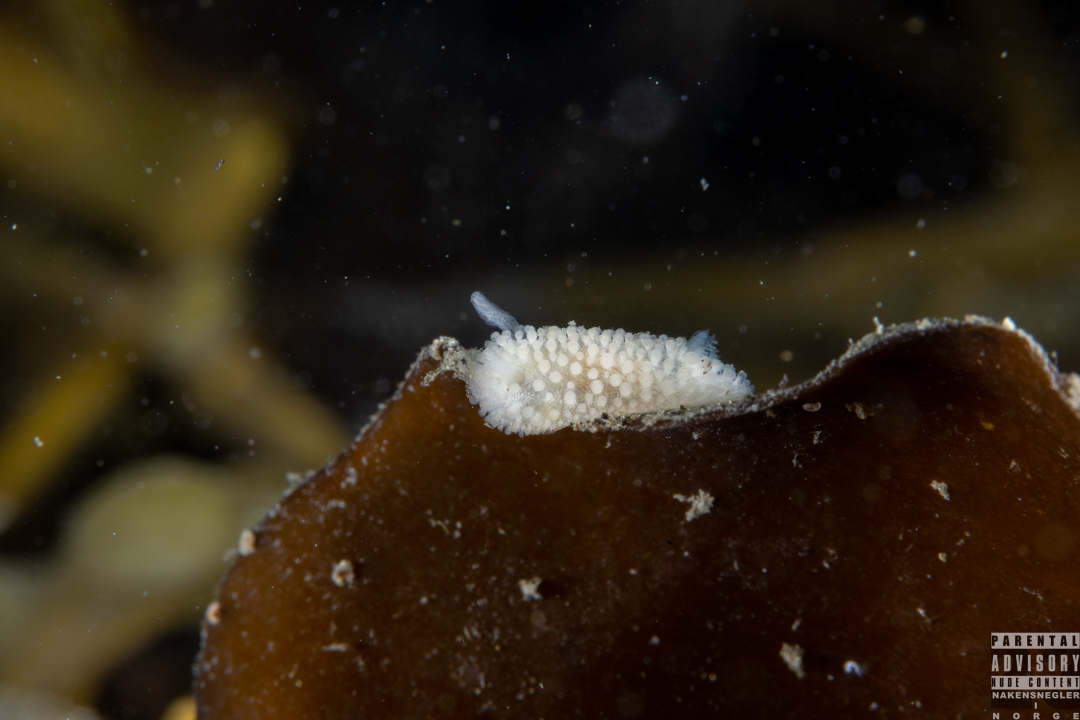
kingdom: Animalia
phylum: Mollusca
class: Gastropoda
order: Nudibranchia
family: Onchidorididae
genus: Onchidoris
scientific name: Onchidoris muricata
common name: Rough doris
